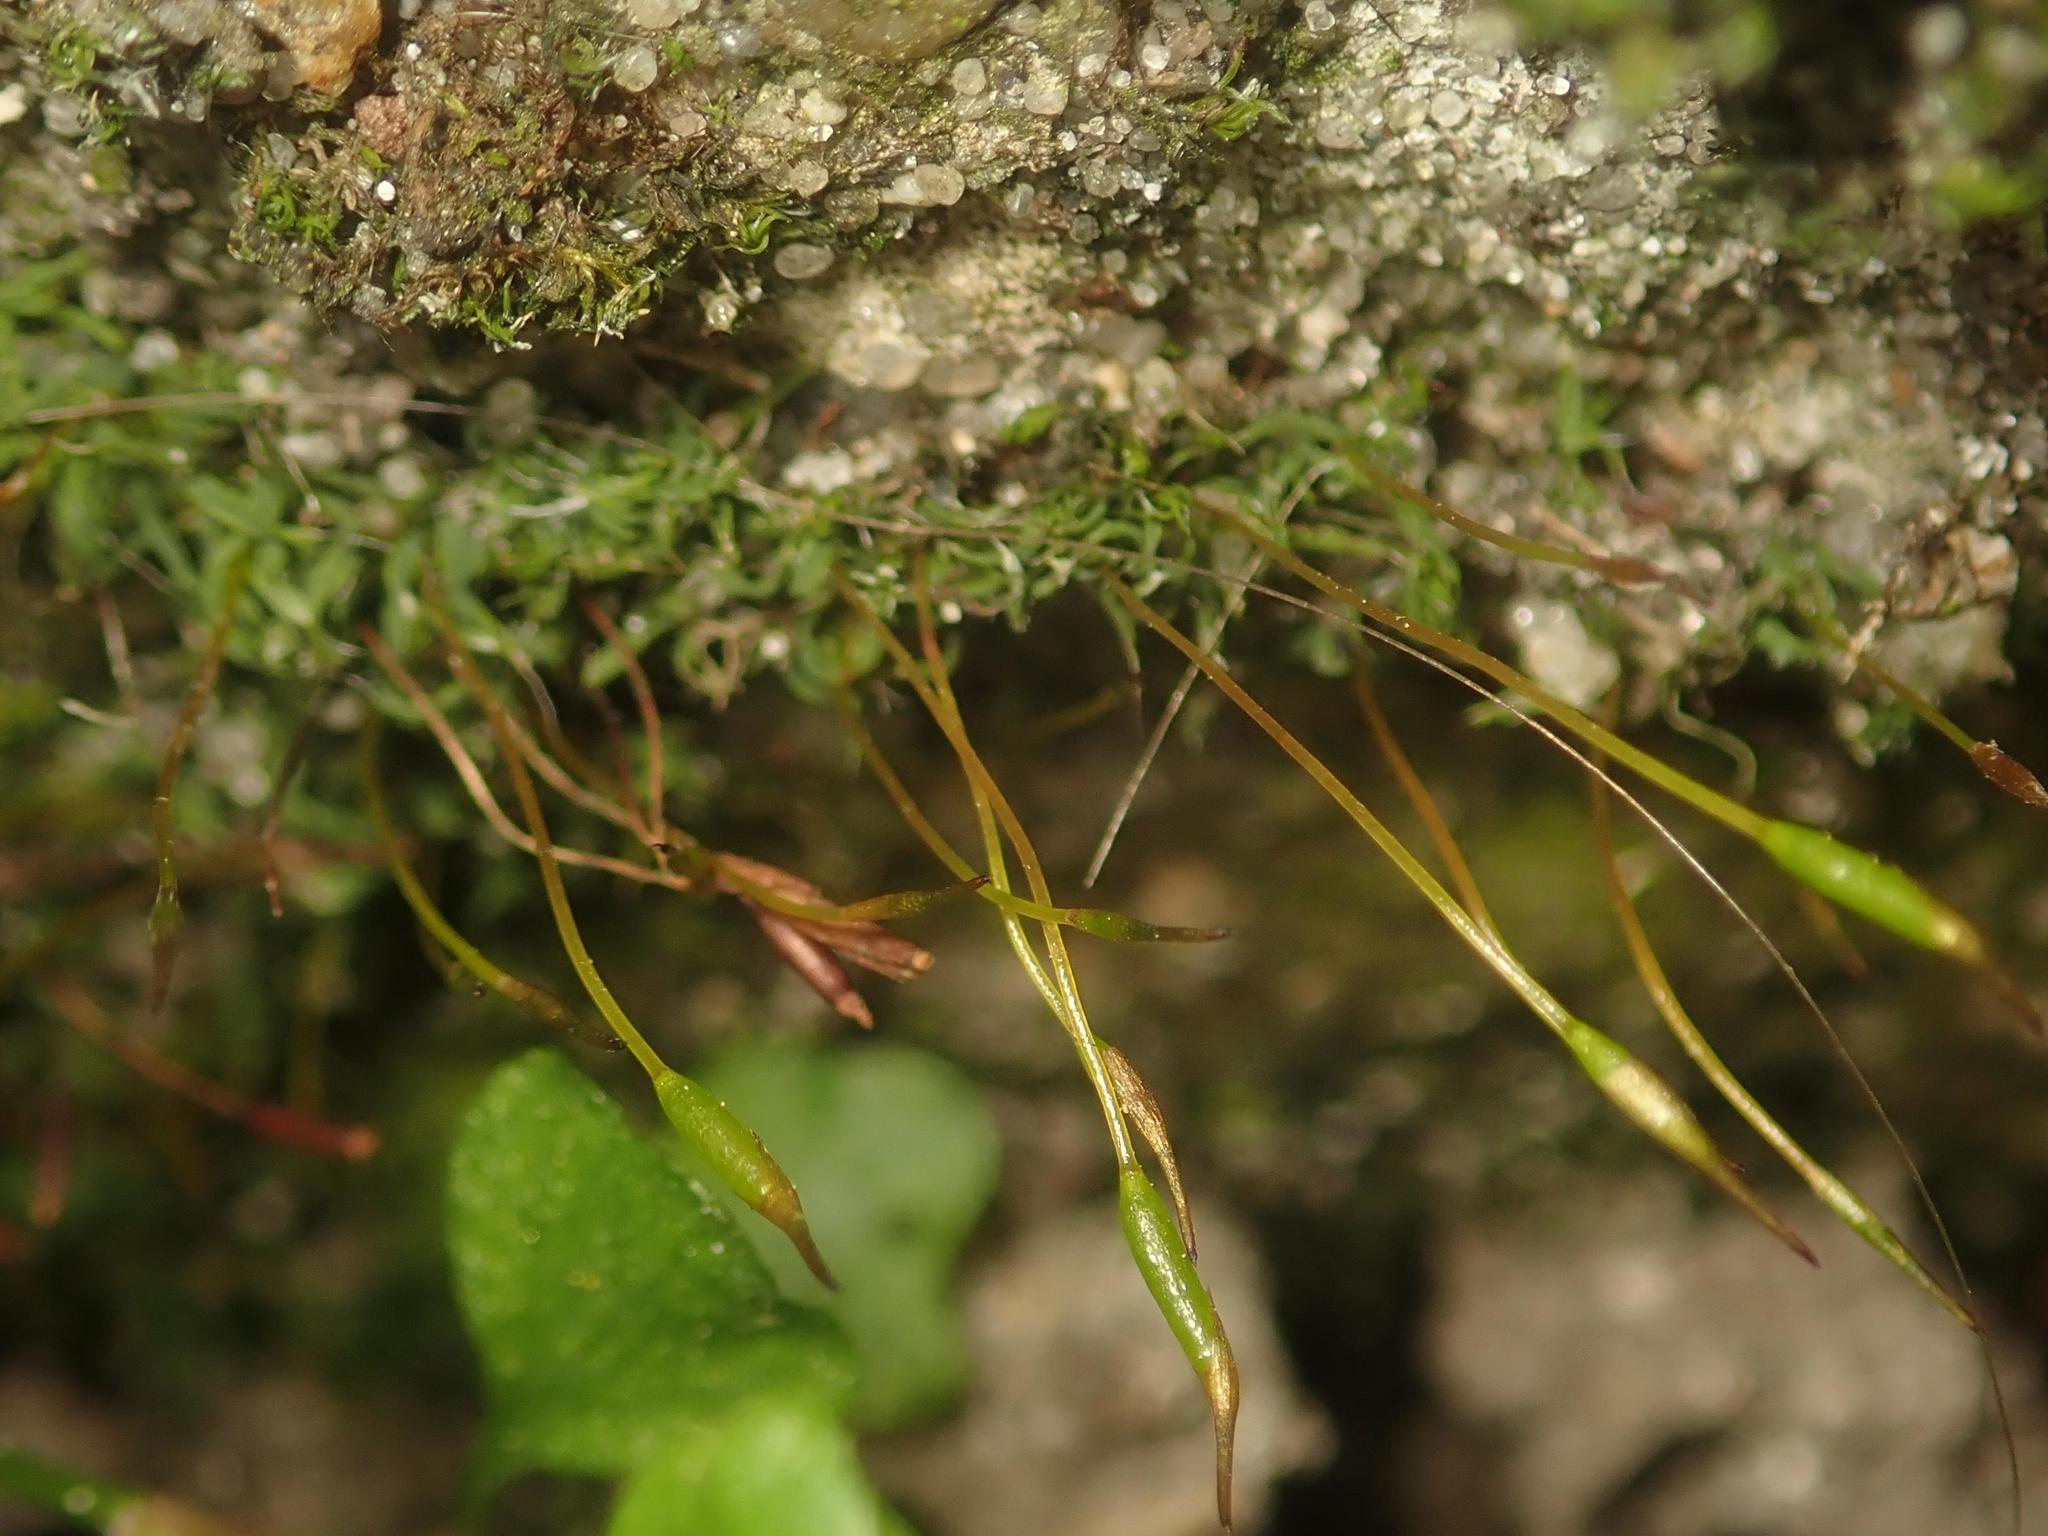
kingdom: Plantae
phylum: Bryophyta
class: Bryopsida
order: Pottiales
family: Pottiaceae
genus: Tortula
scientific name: Tortula muralis
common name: Wall screw-moss
